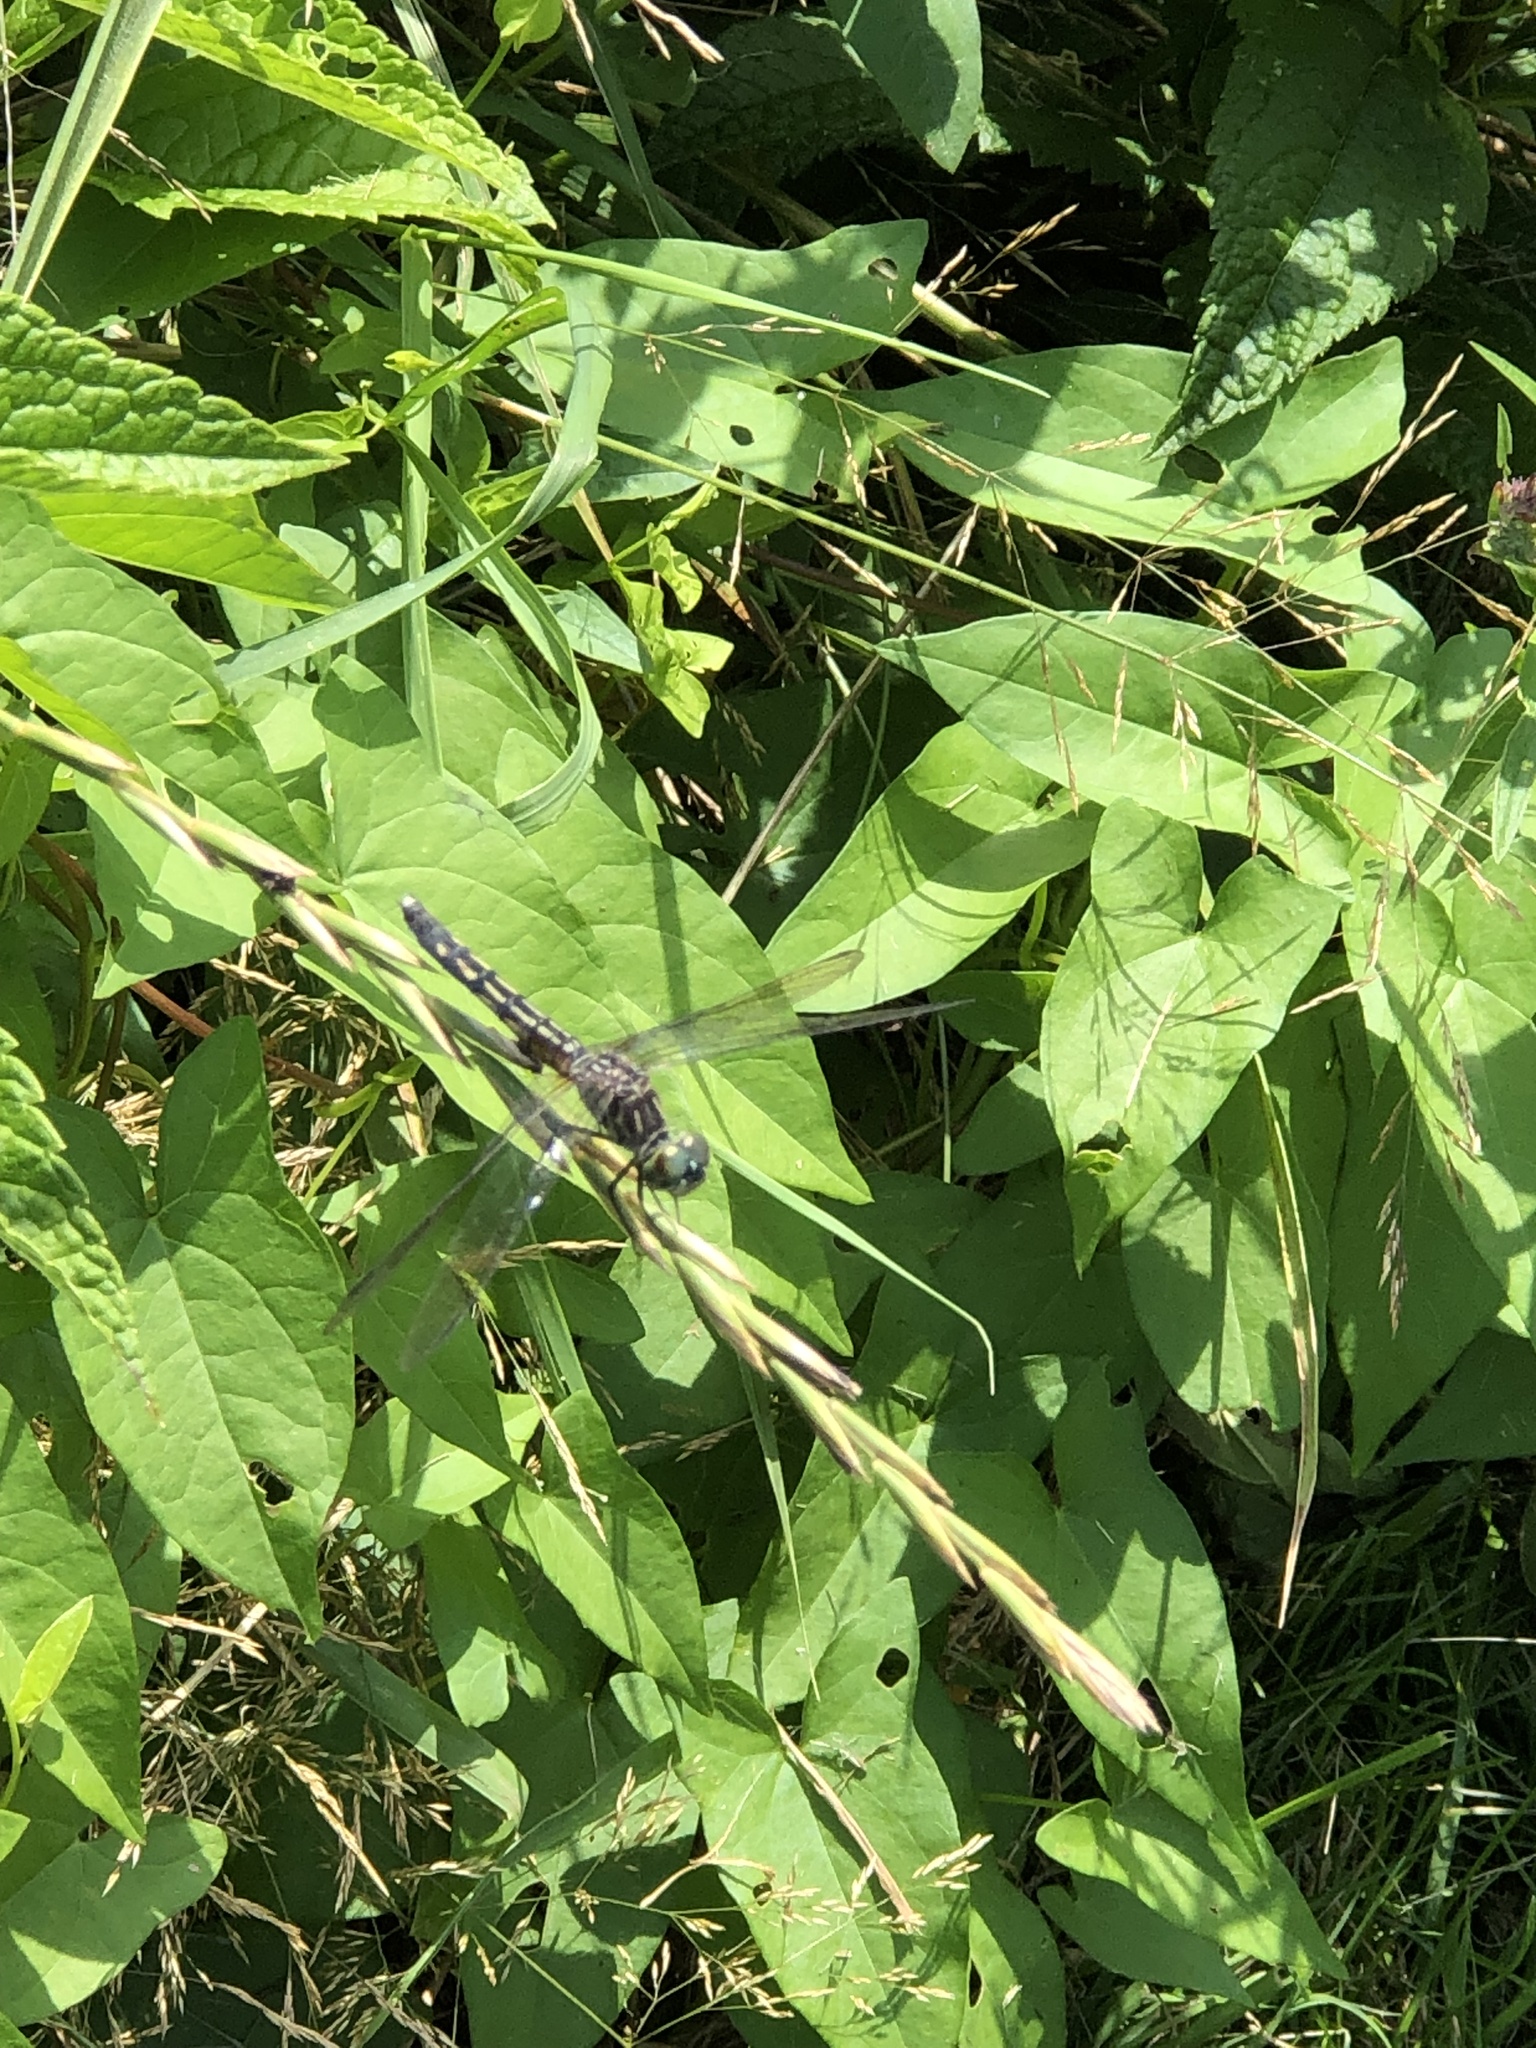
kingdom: Animalia
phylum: Arthropoda
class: Insecta
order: Odonata
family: Libellulidae
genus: Pachydiplax
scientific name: Pachydiplax longipennis
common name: Blue dasher
